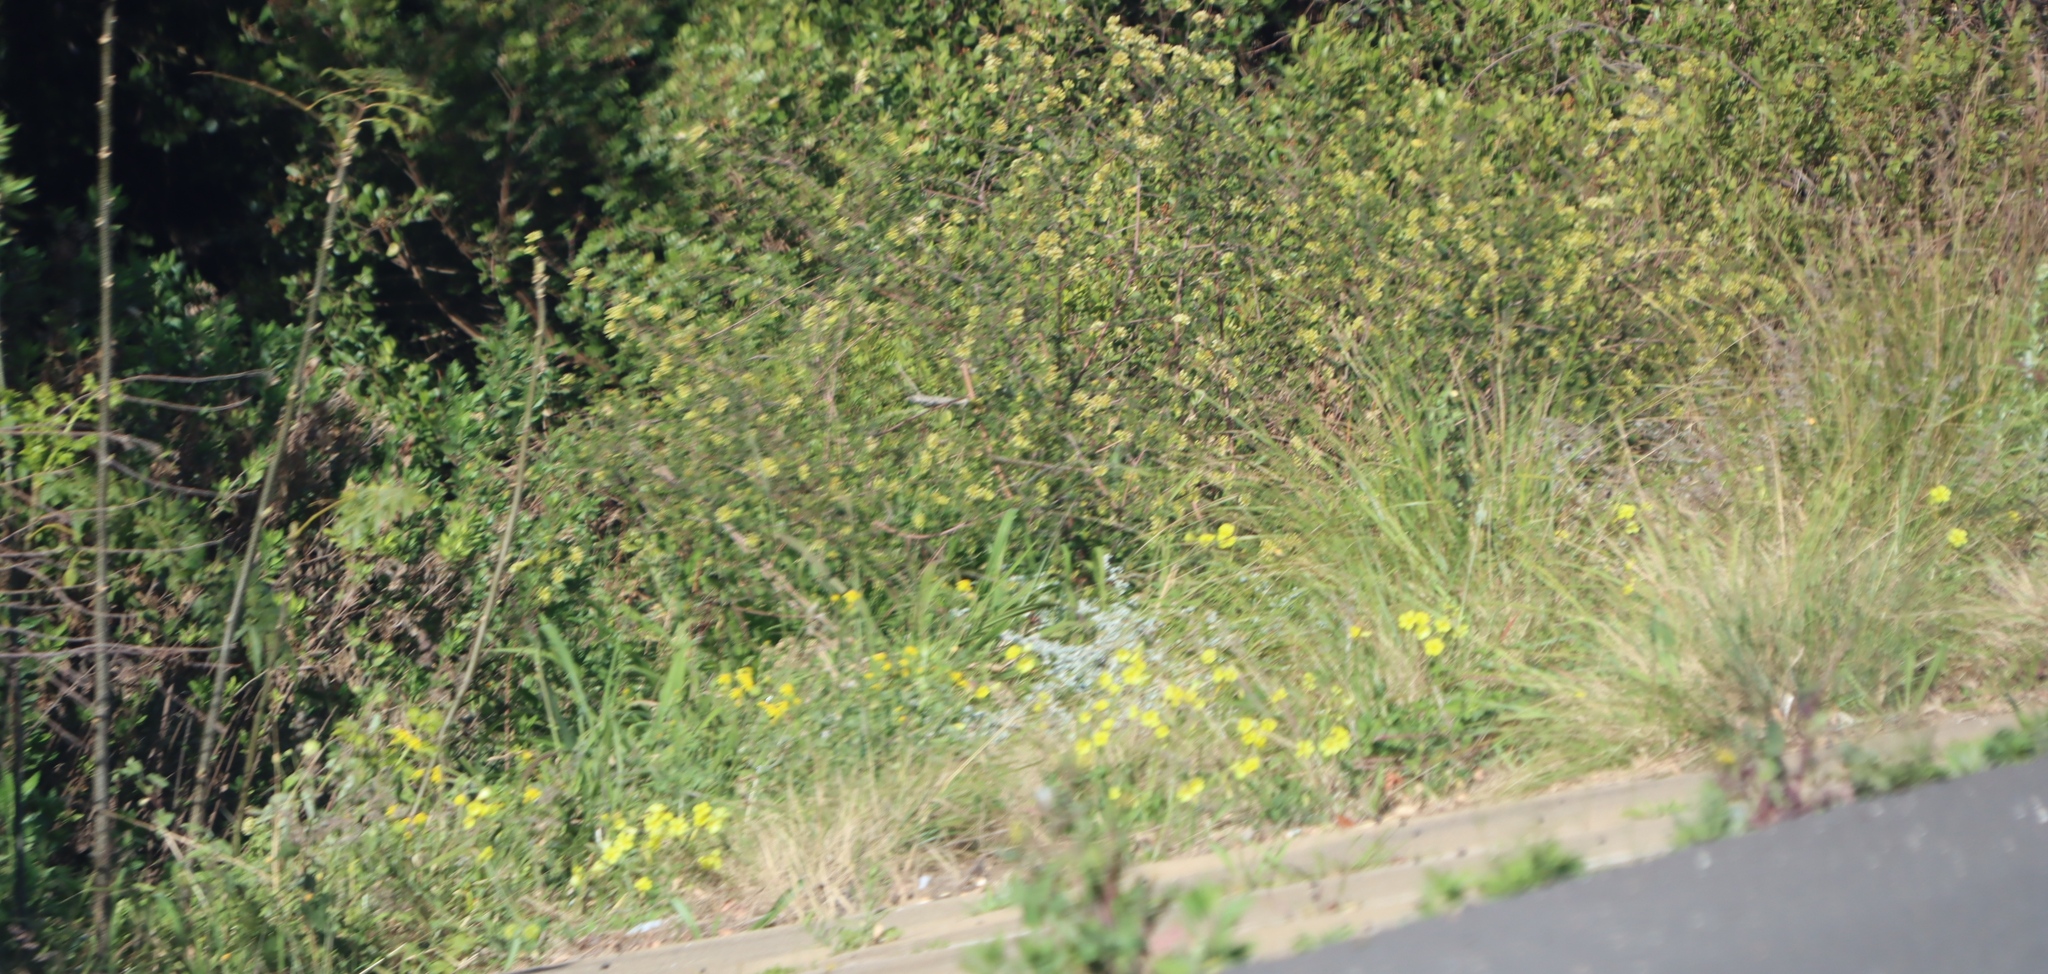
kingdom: Plantae
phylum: Tracheophyta
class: Magnoliopsida
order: Oxalidales
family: Oxalidaceae
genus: Oxalis
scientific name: Oxalis pes-caprae
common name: Bermuda-buttercup
